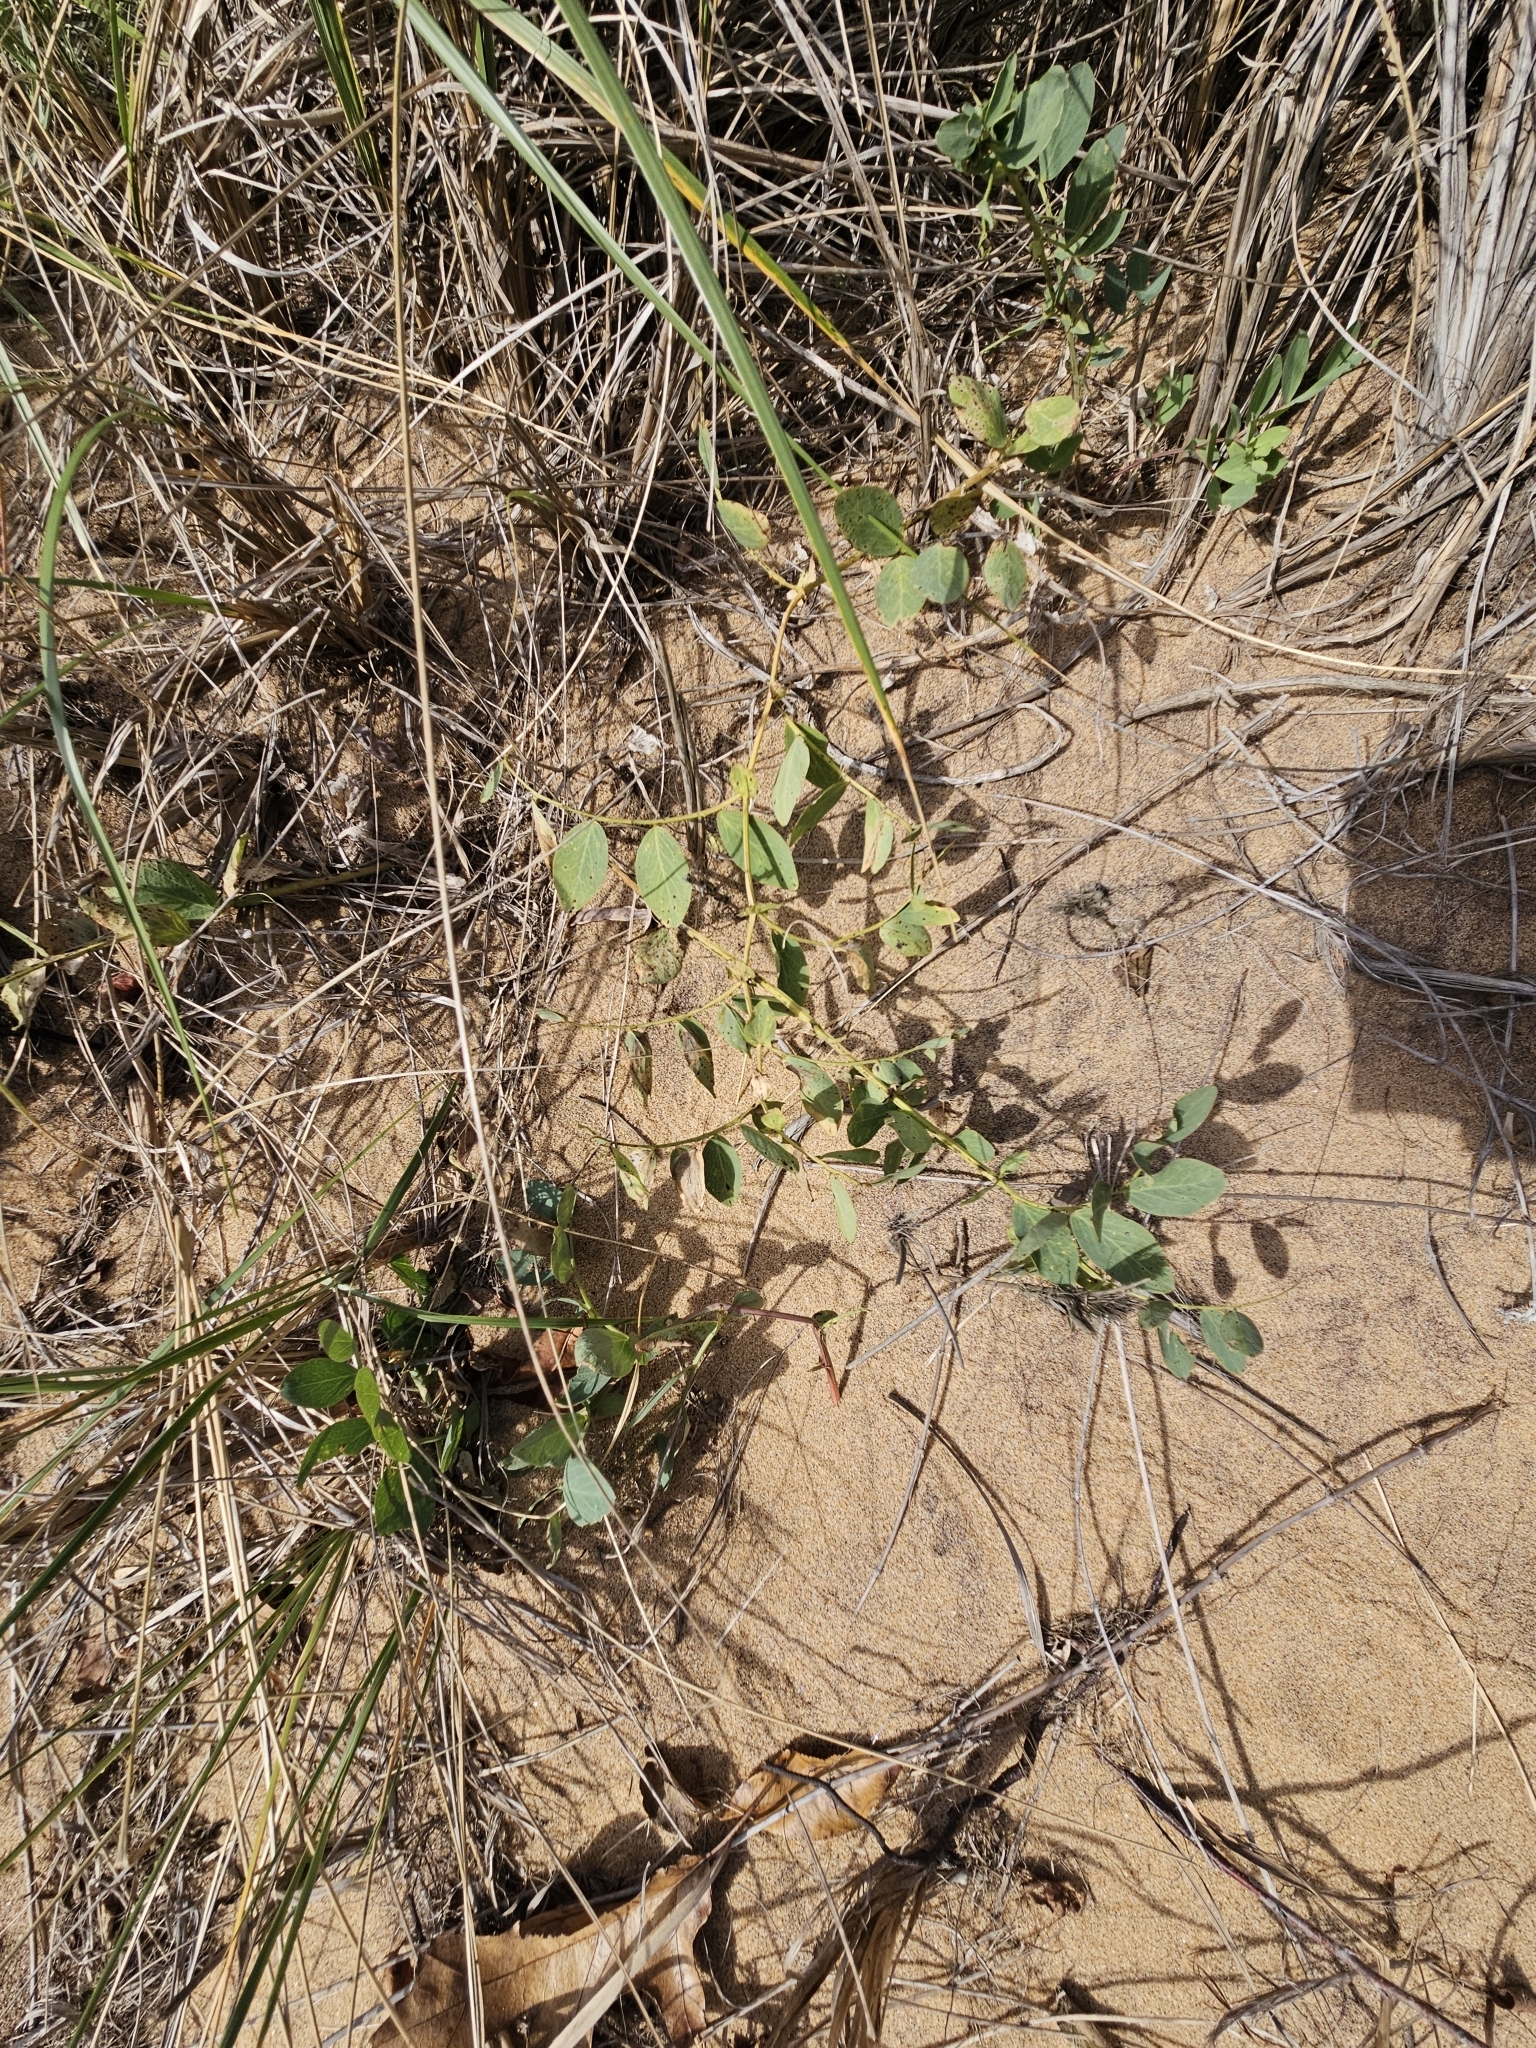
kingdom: Plantae
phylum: Tracheophyta
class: Magnoliopsida
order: Fabales
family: Fabaceae
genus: Lathyrus
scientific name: Lathyrus japonicus
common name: Sea pea
